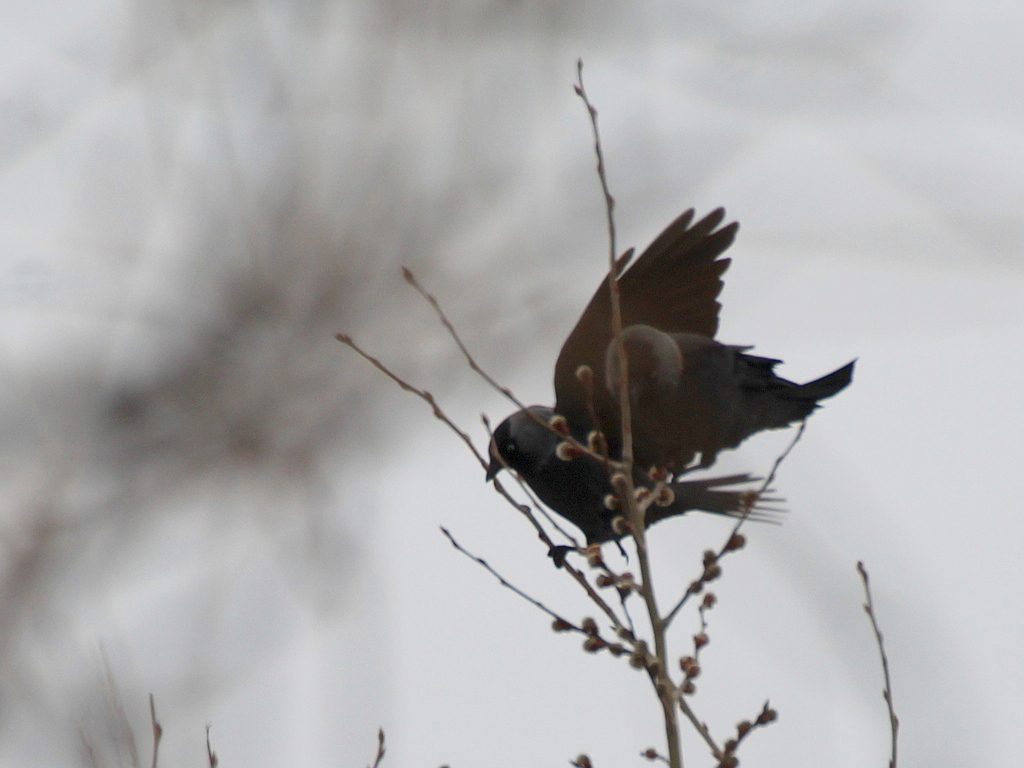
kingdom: Animalia
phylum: Chordata
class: Aves
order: Passeriformes
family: Corvidae
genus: Coloeus
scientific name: Coloeus monedula
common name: Western jackdaw
